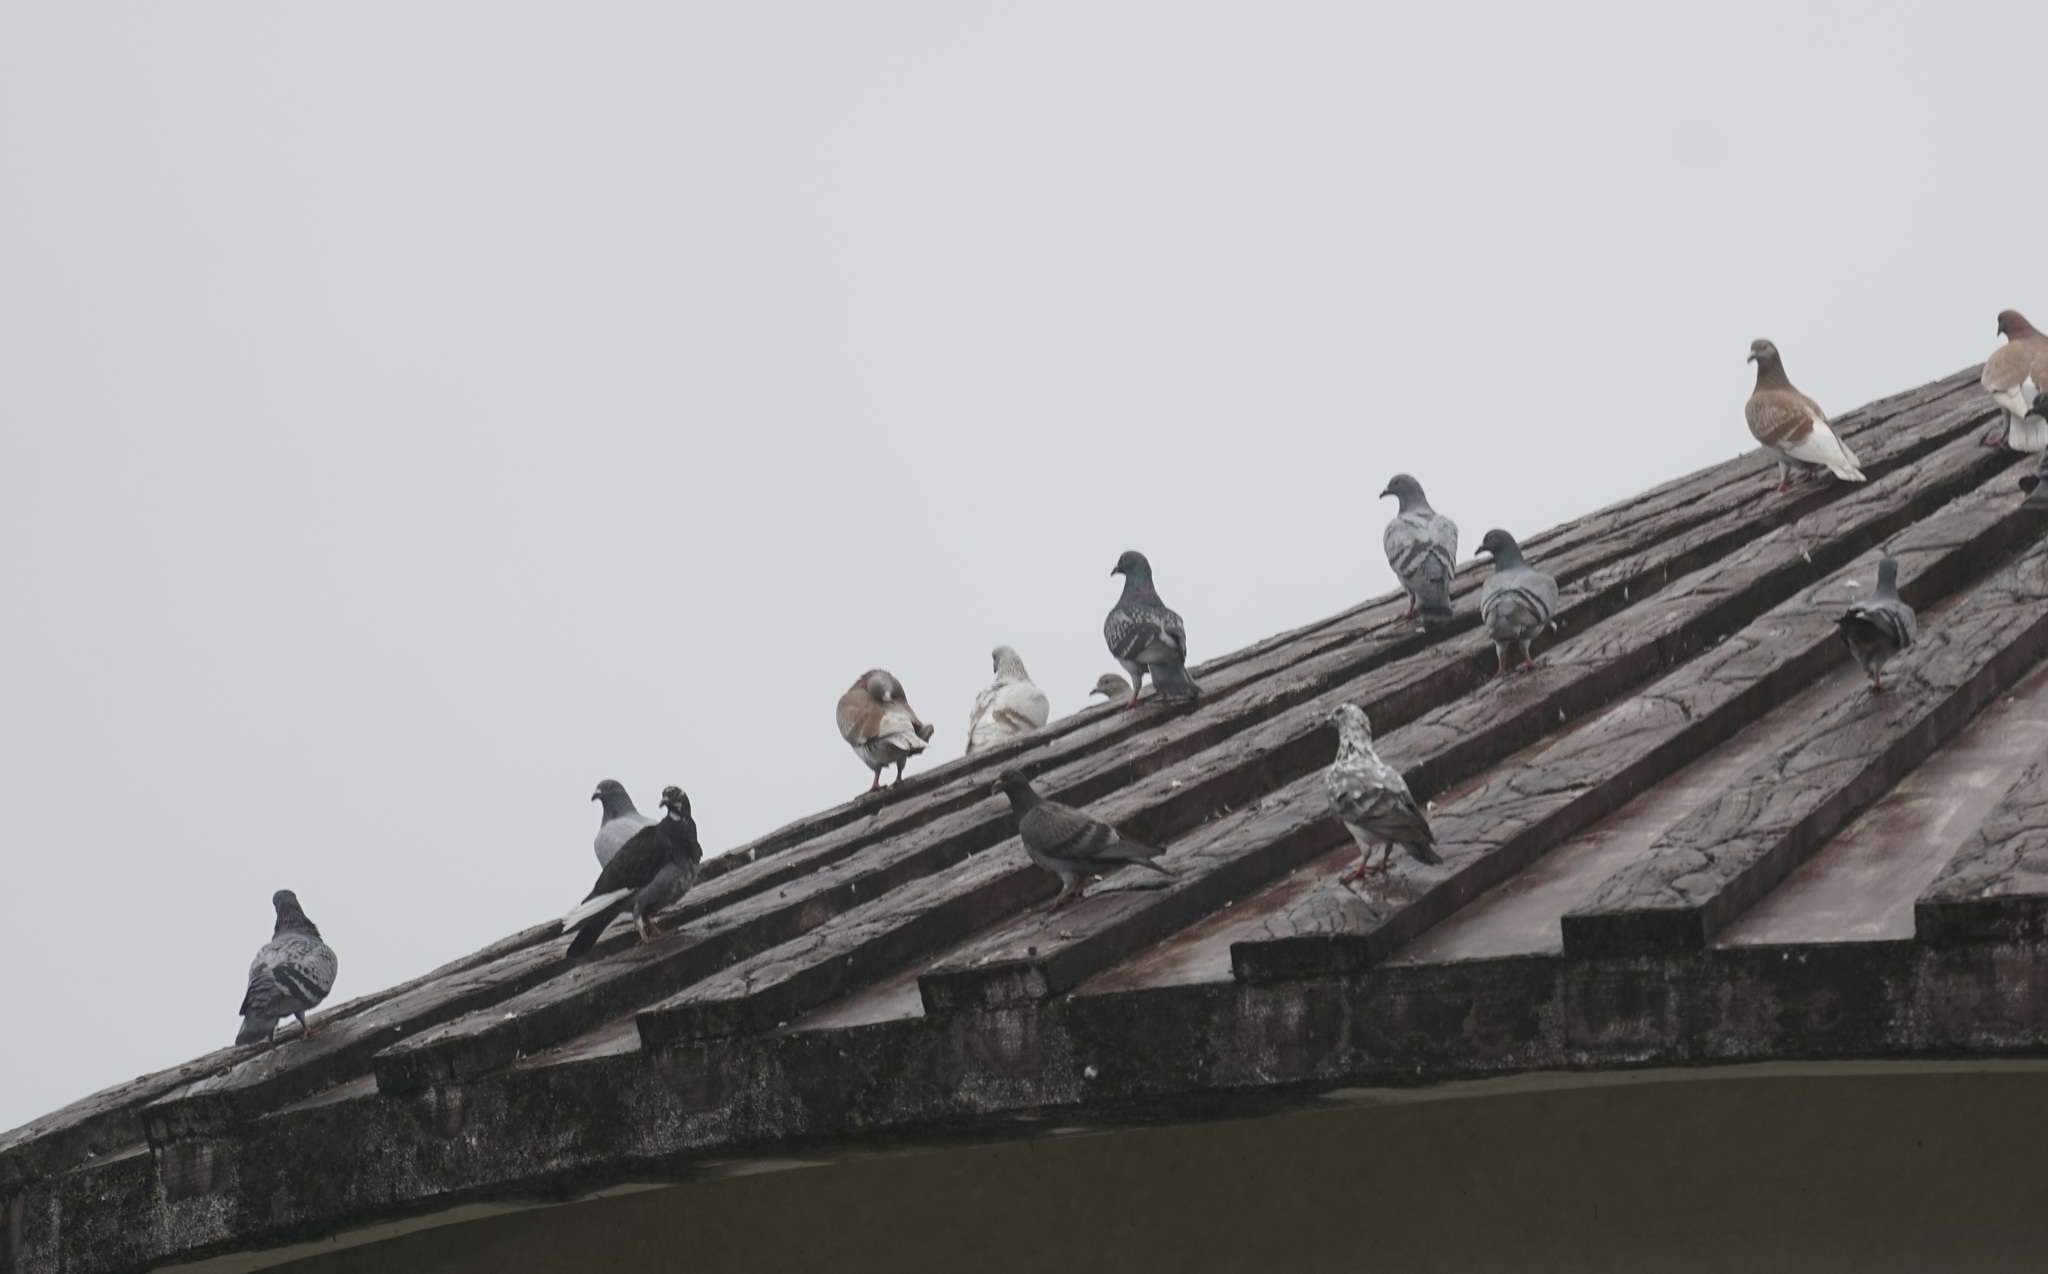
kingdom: Animalia
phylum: Chordata
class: Aves
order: Columbiformes
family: Columbidae
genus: Columba
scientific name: Columba livia
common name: Rock pigeon
